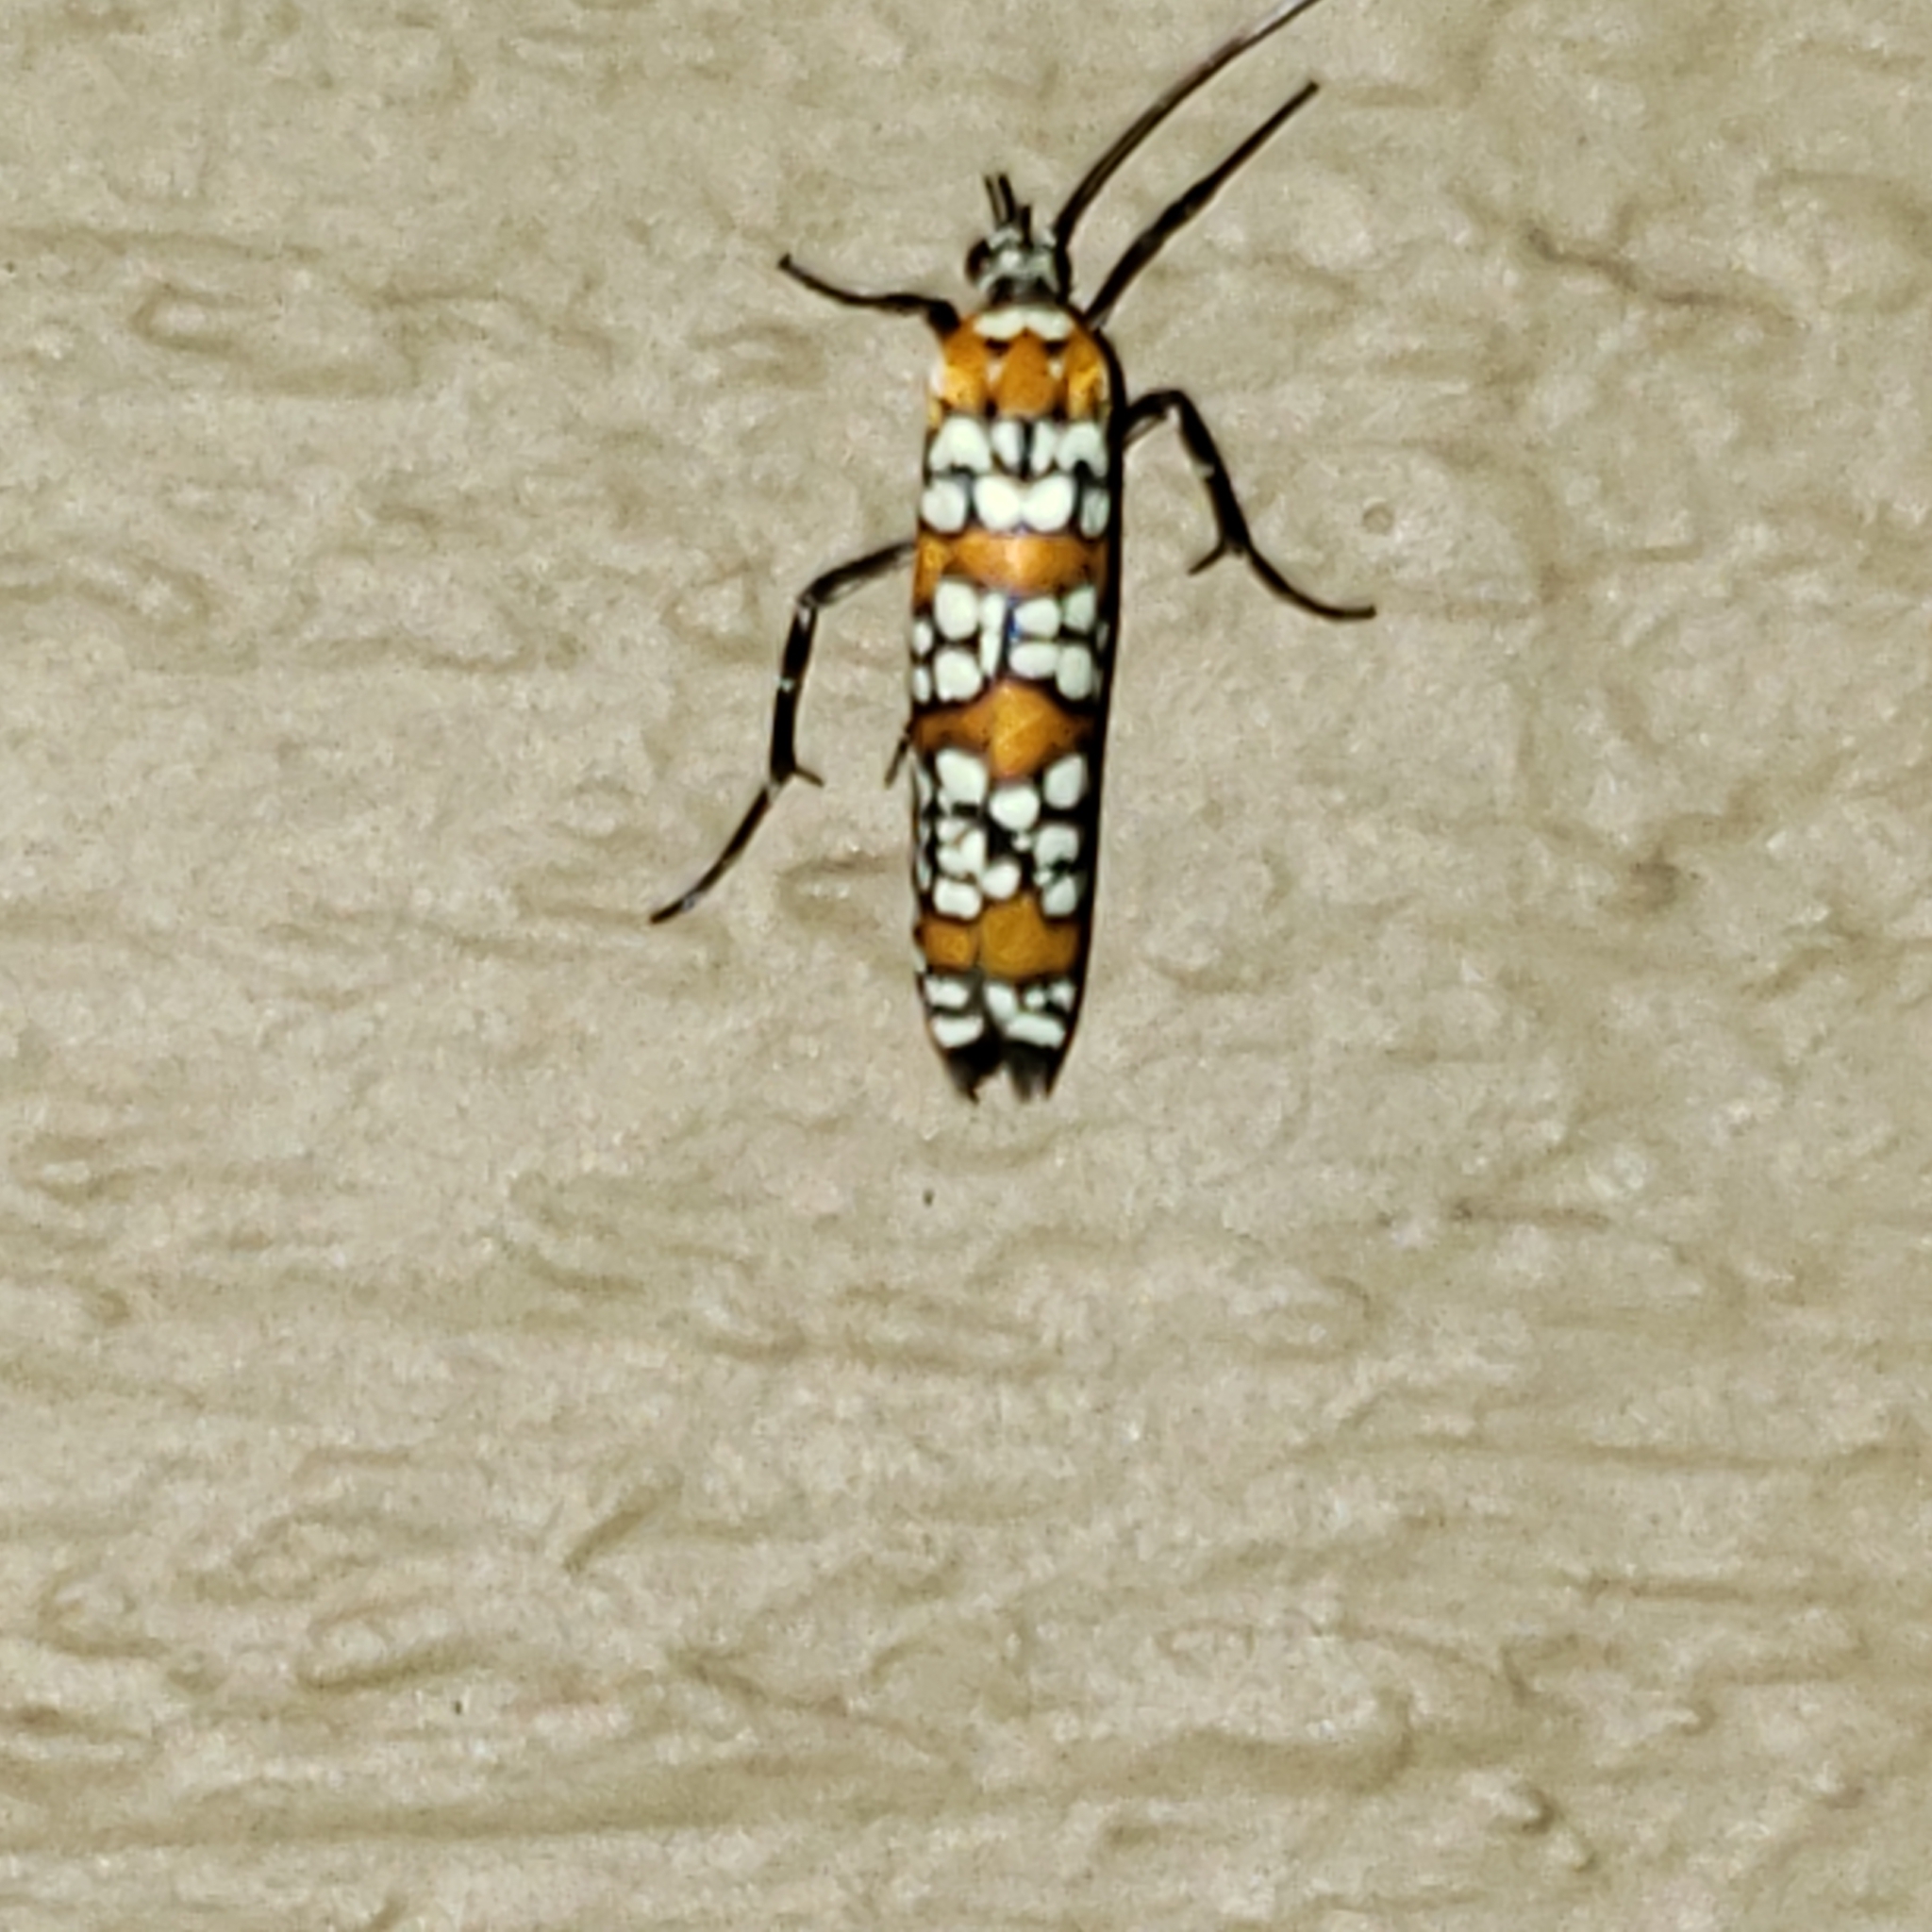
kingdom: Animalia
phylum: Arthropoda
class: Insecta
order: Lepidoptera
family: Attevidae
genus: Atteva
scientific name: Atteva punctella
